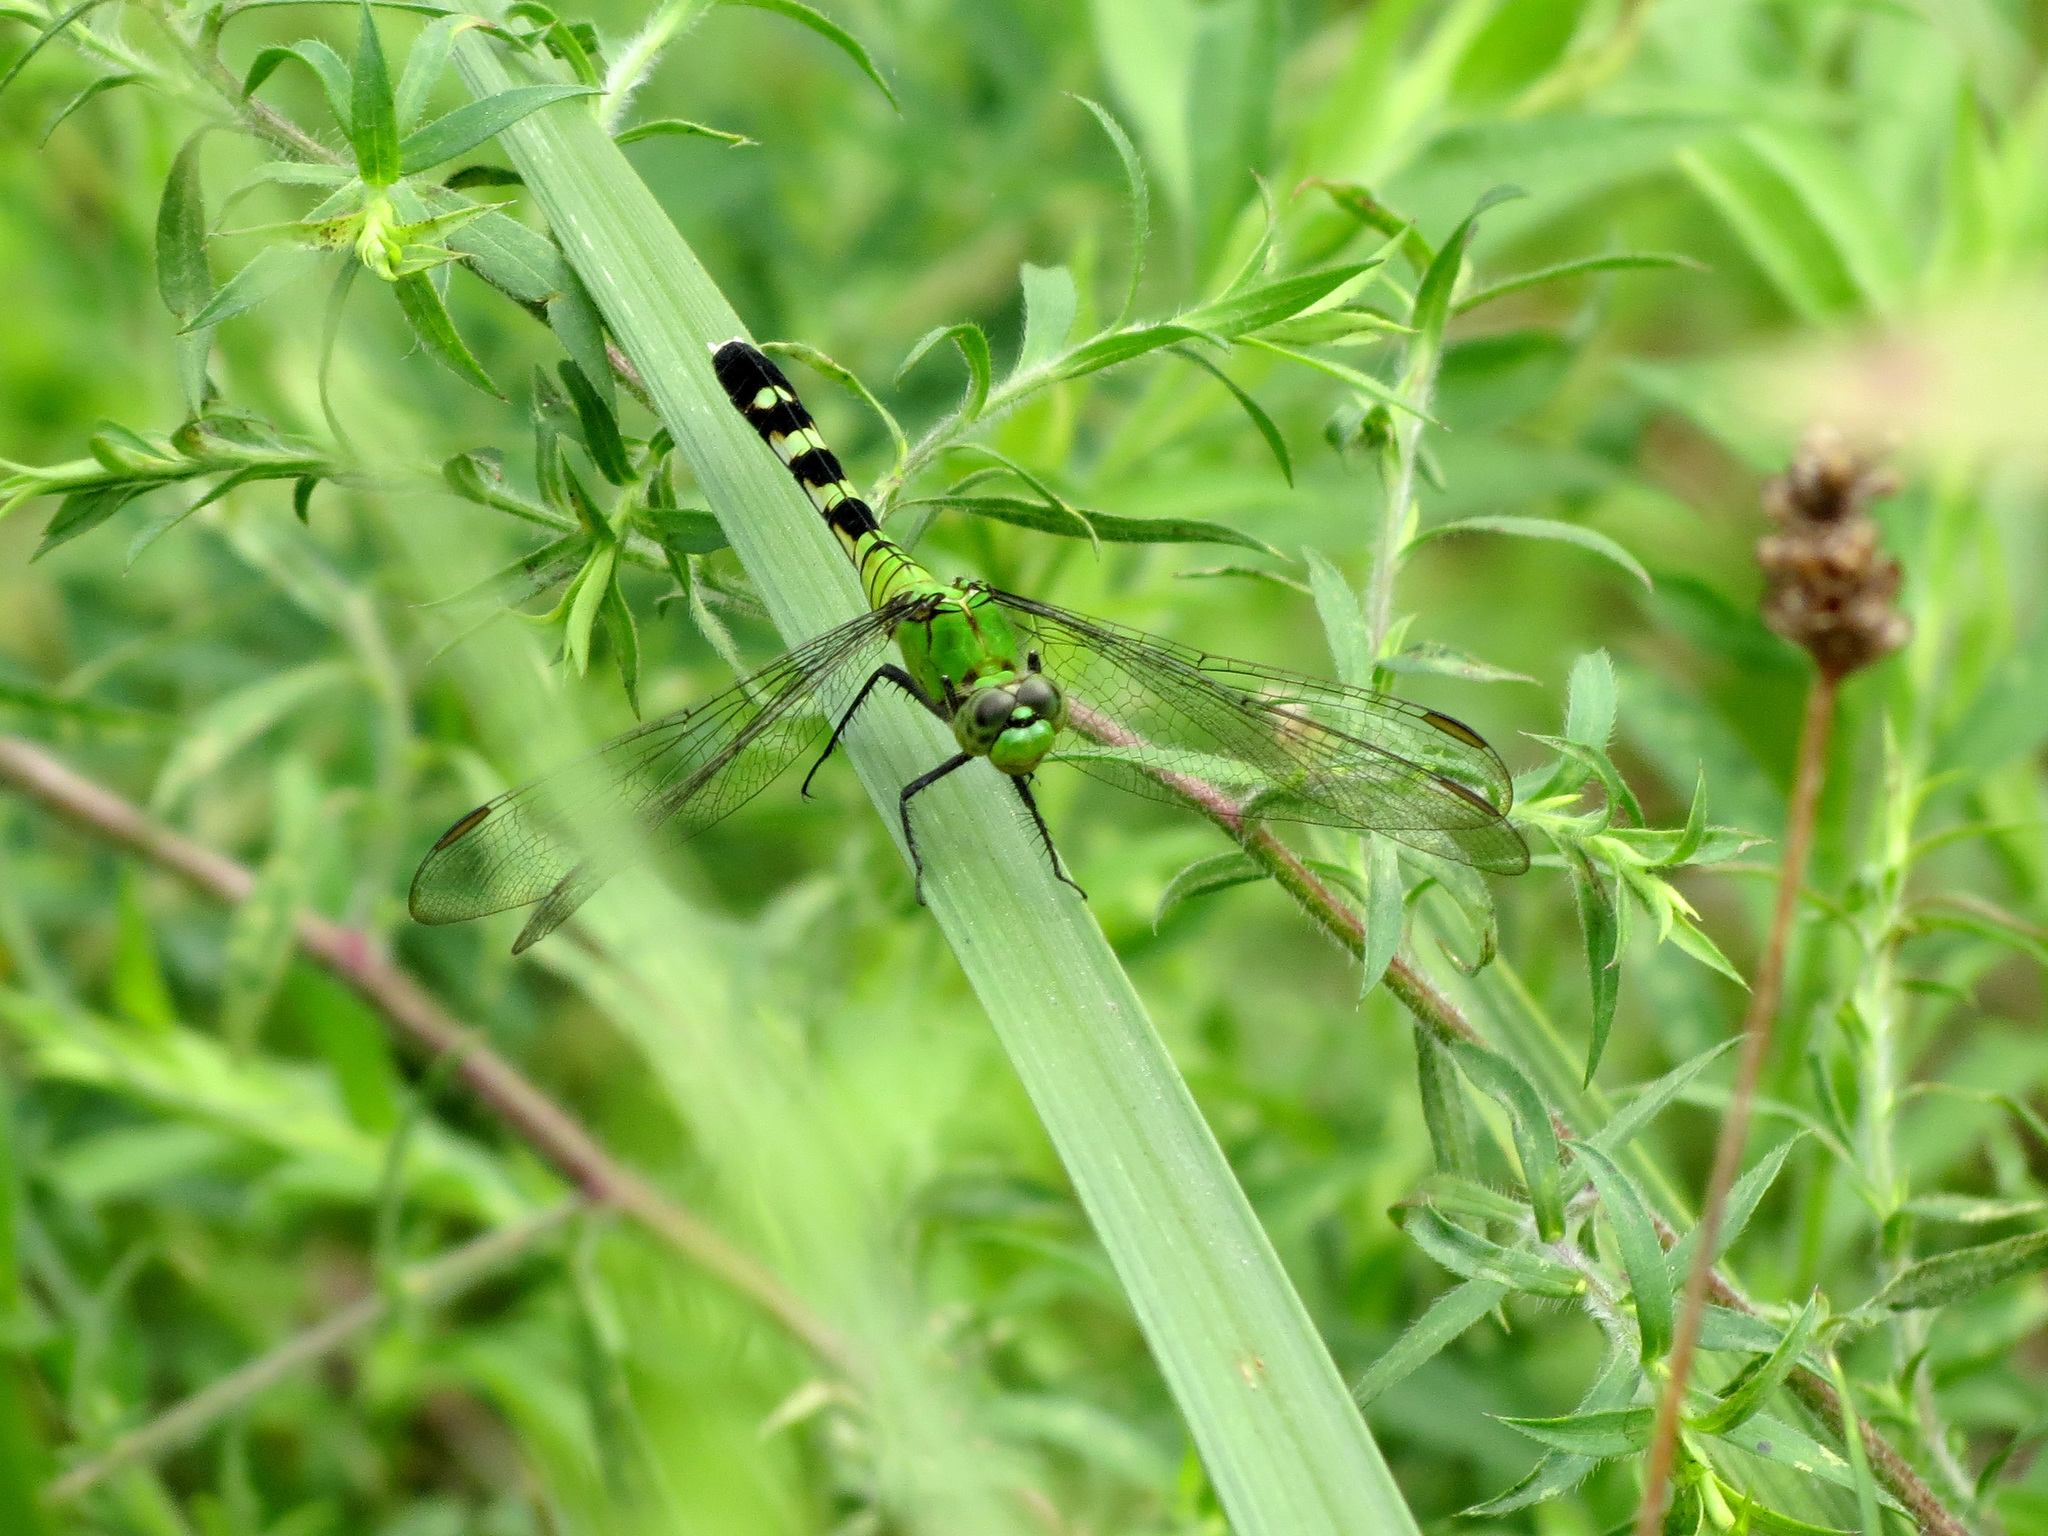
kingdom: Animalia
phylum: Arthropoda
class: Insecta
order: Odonata
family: Libellulidae
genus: Erythemis
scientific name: Erythemis simplicicollis
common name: Eastern pondhawk
